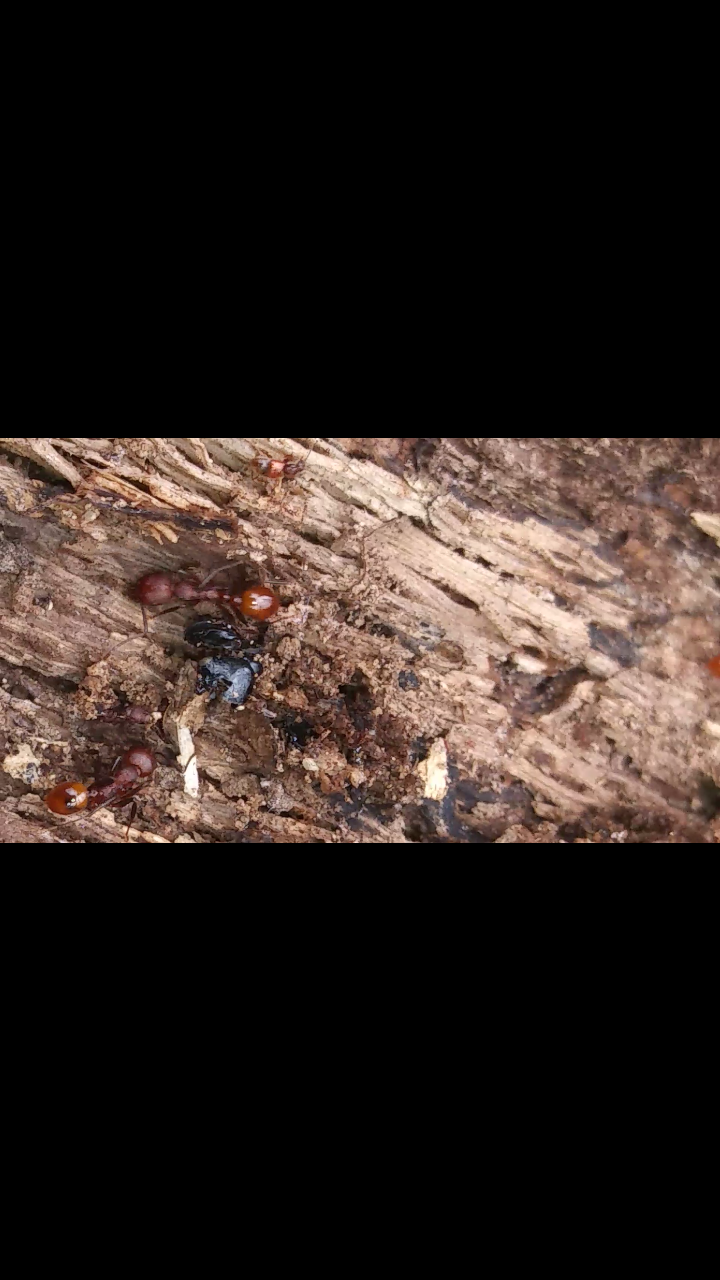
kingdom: Animalia
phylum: Arthropoda
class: Insecta
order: Hymenoptera
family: Formicidae
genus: Aphaenogaster
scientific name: Aphaenogaster tennesseensis
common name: Tennessee thread-waisted ant
